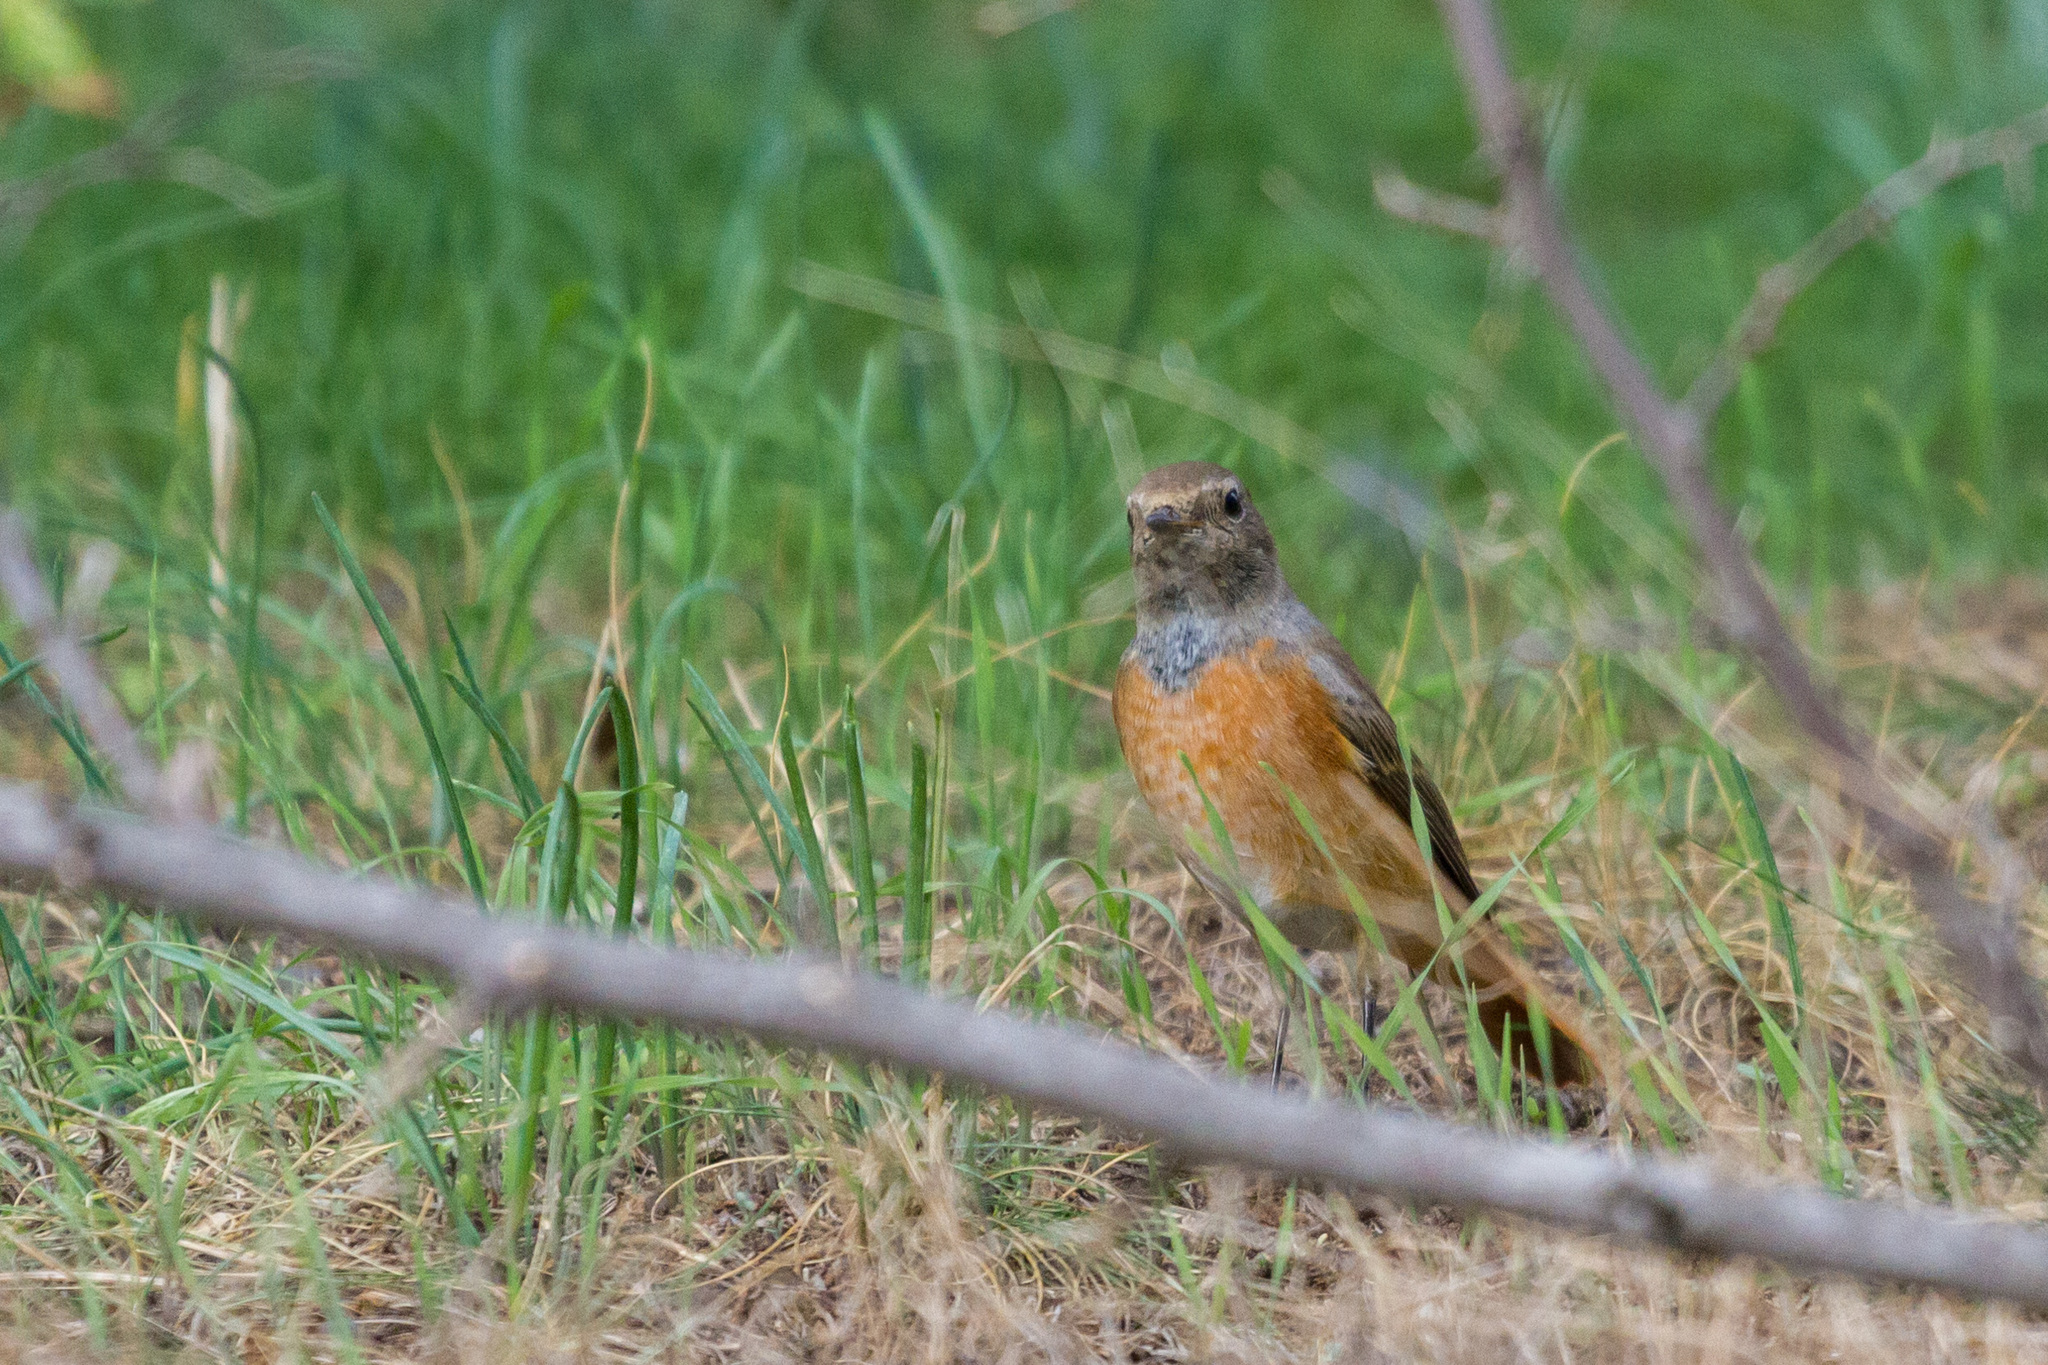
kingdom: Animalia
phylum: Chordata
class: Aves
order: Passeriformes
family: Muscicapidae
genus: Phoenicurus
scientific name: Phoenicurus phoenicurus
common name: Common redstart
